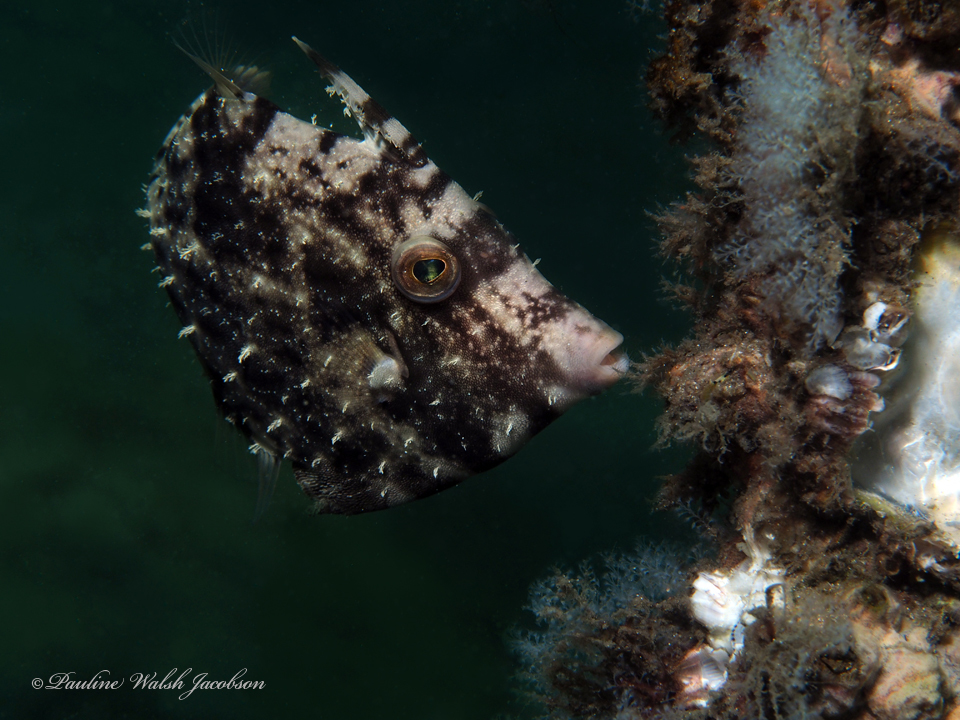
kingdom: Animalia
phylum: Chordata
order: Tetraodontiformes
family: Monacanthidae
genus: Stephanolepis
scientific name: Stephanolepis hispidus
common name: Planehead filefish
